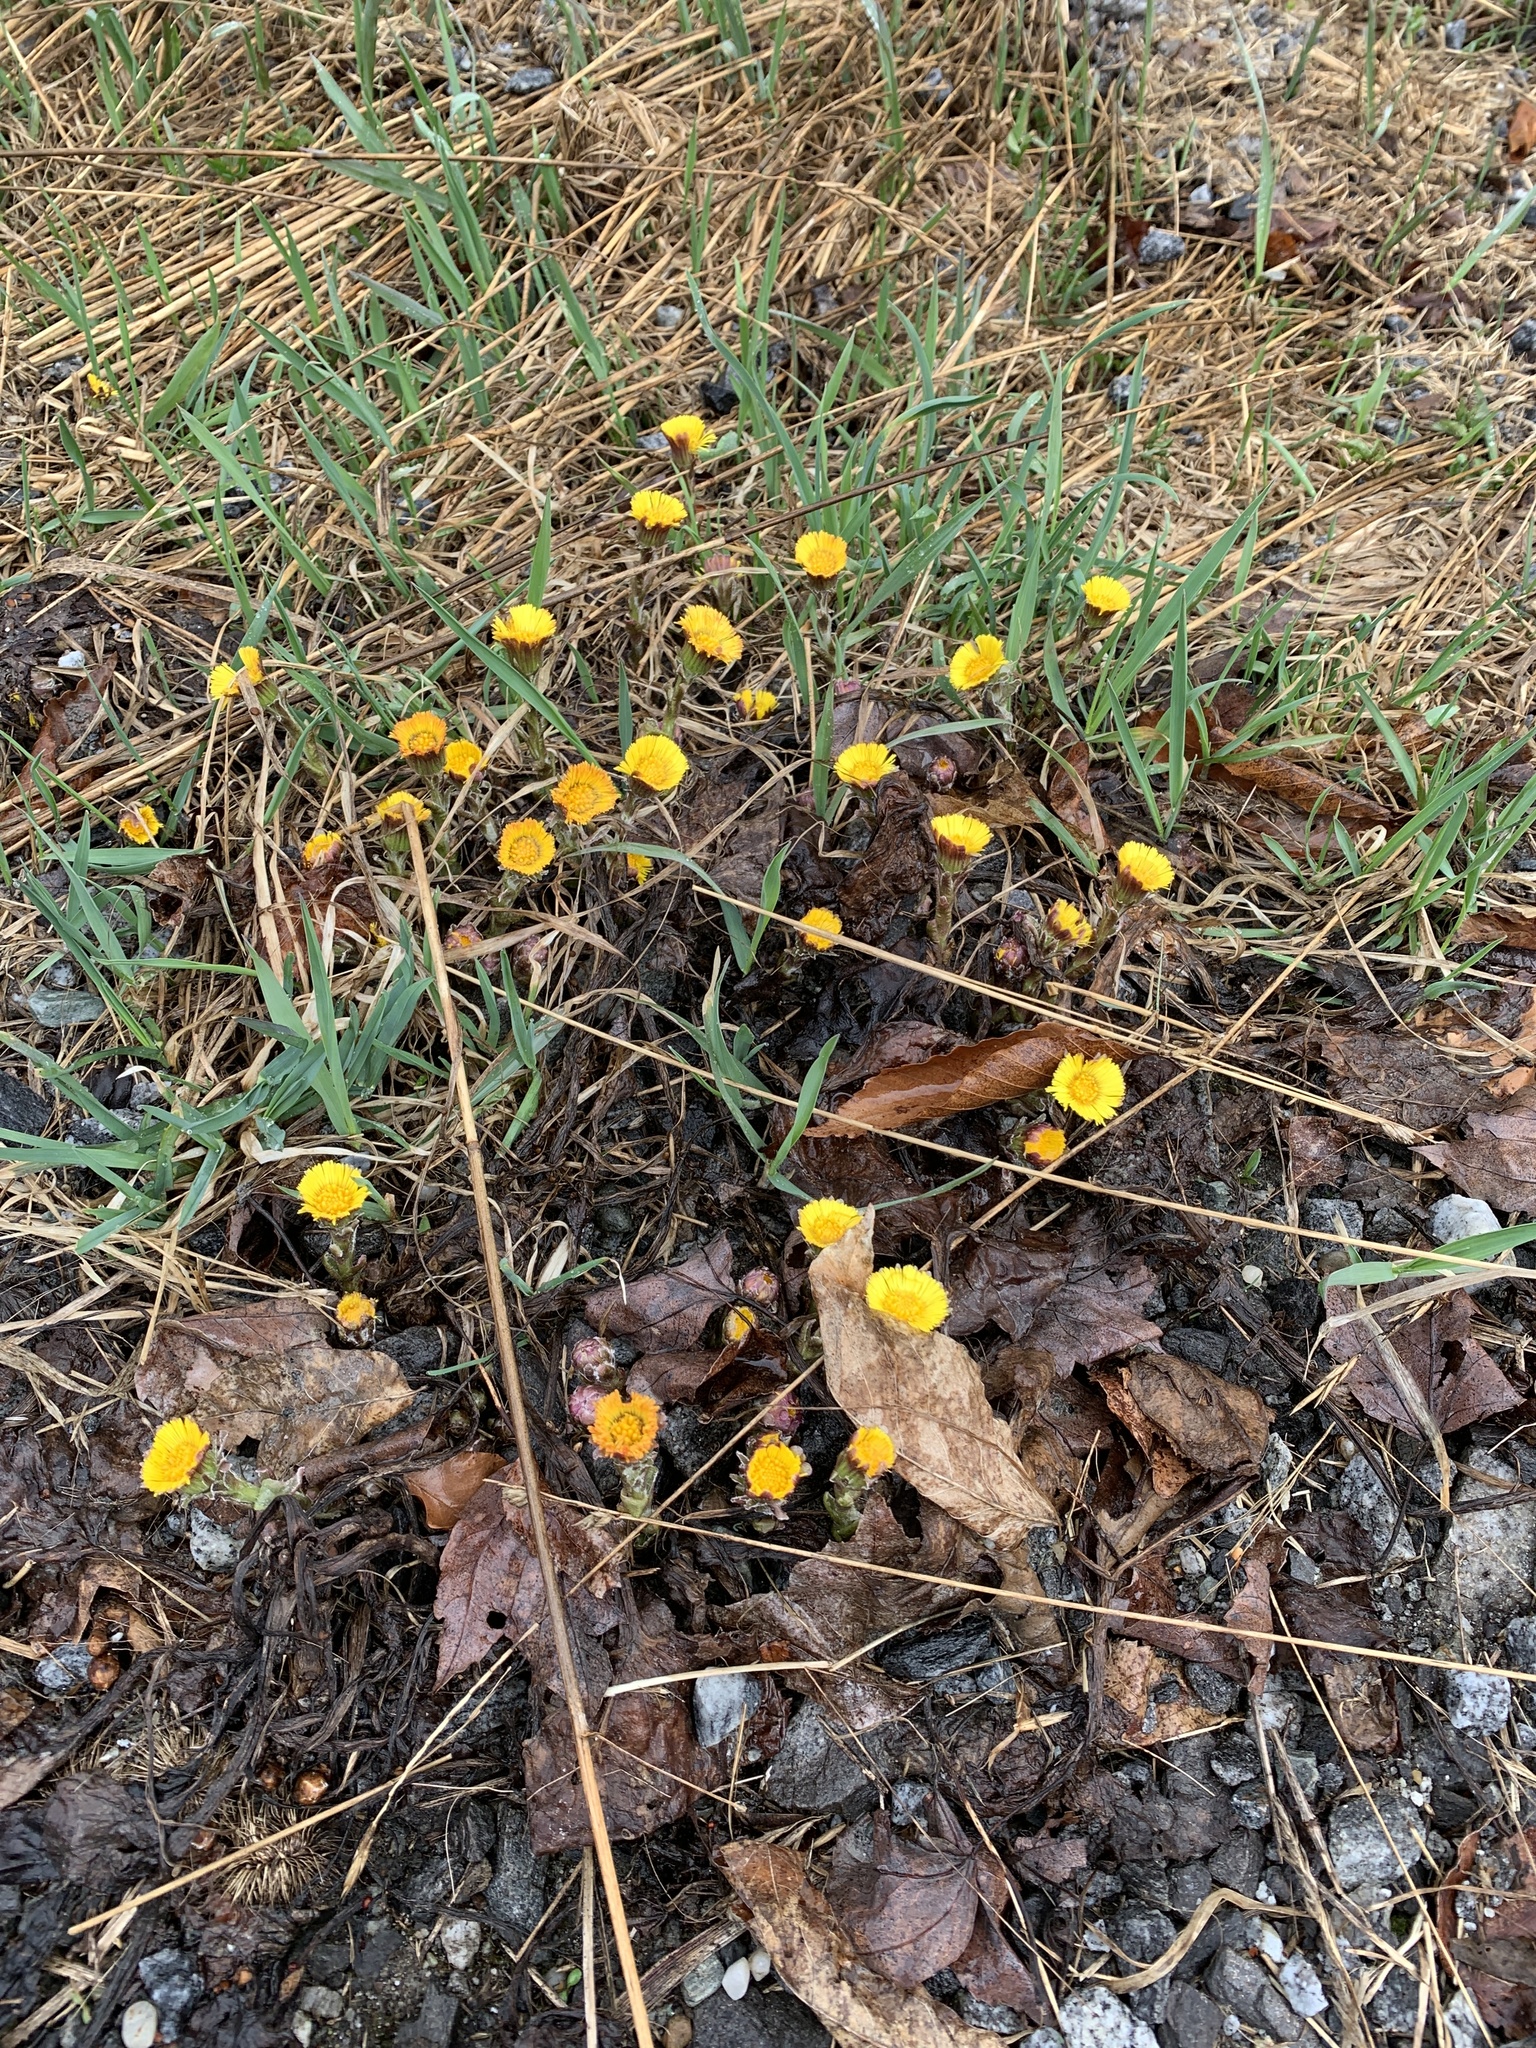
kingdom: Plantae
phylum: Tracheophyta
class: Magnoliopsida
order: Asterales
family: Asteraceae
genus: Tussilago
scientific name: Tussilago farfara
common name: Coltsfoot
